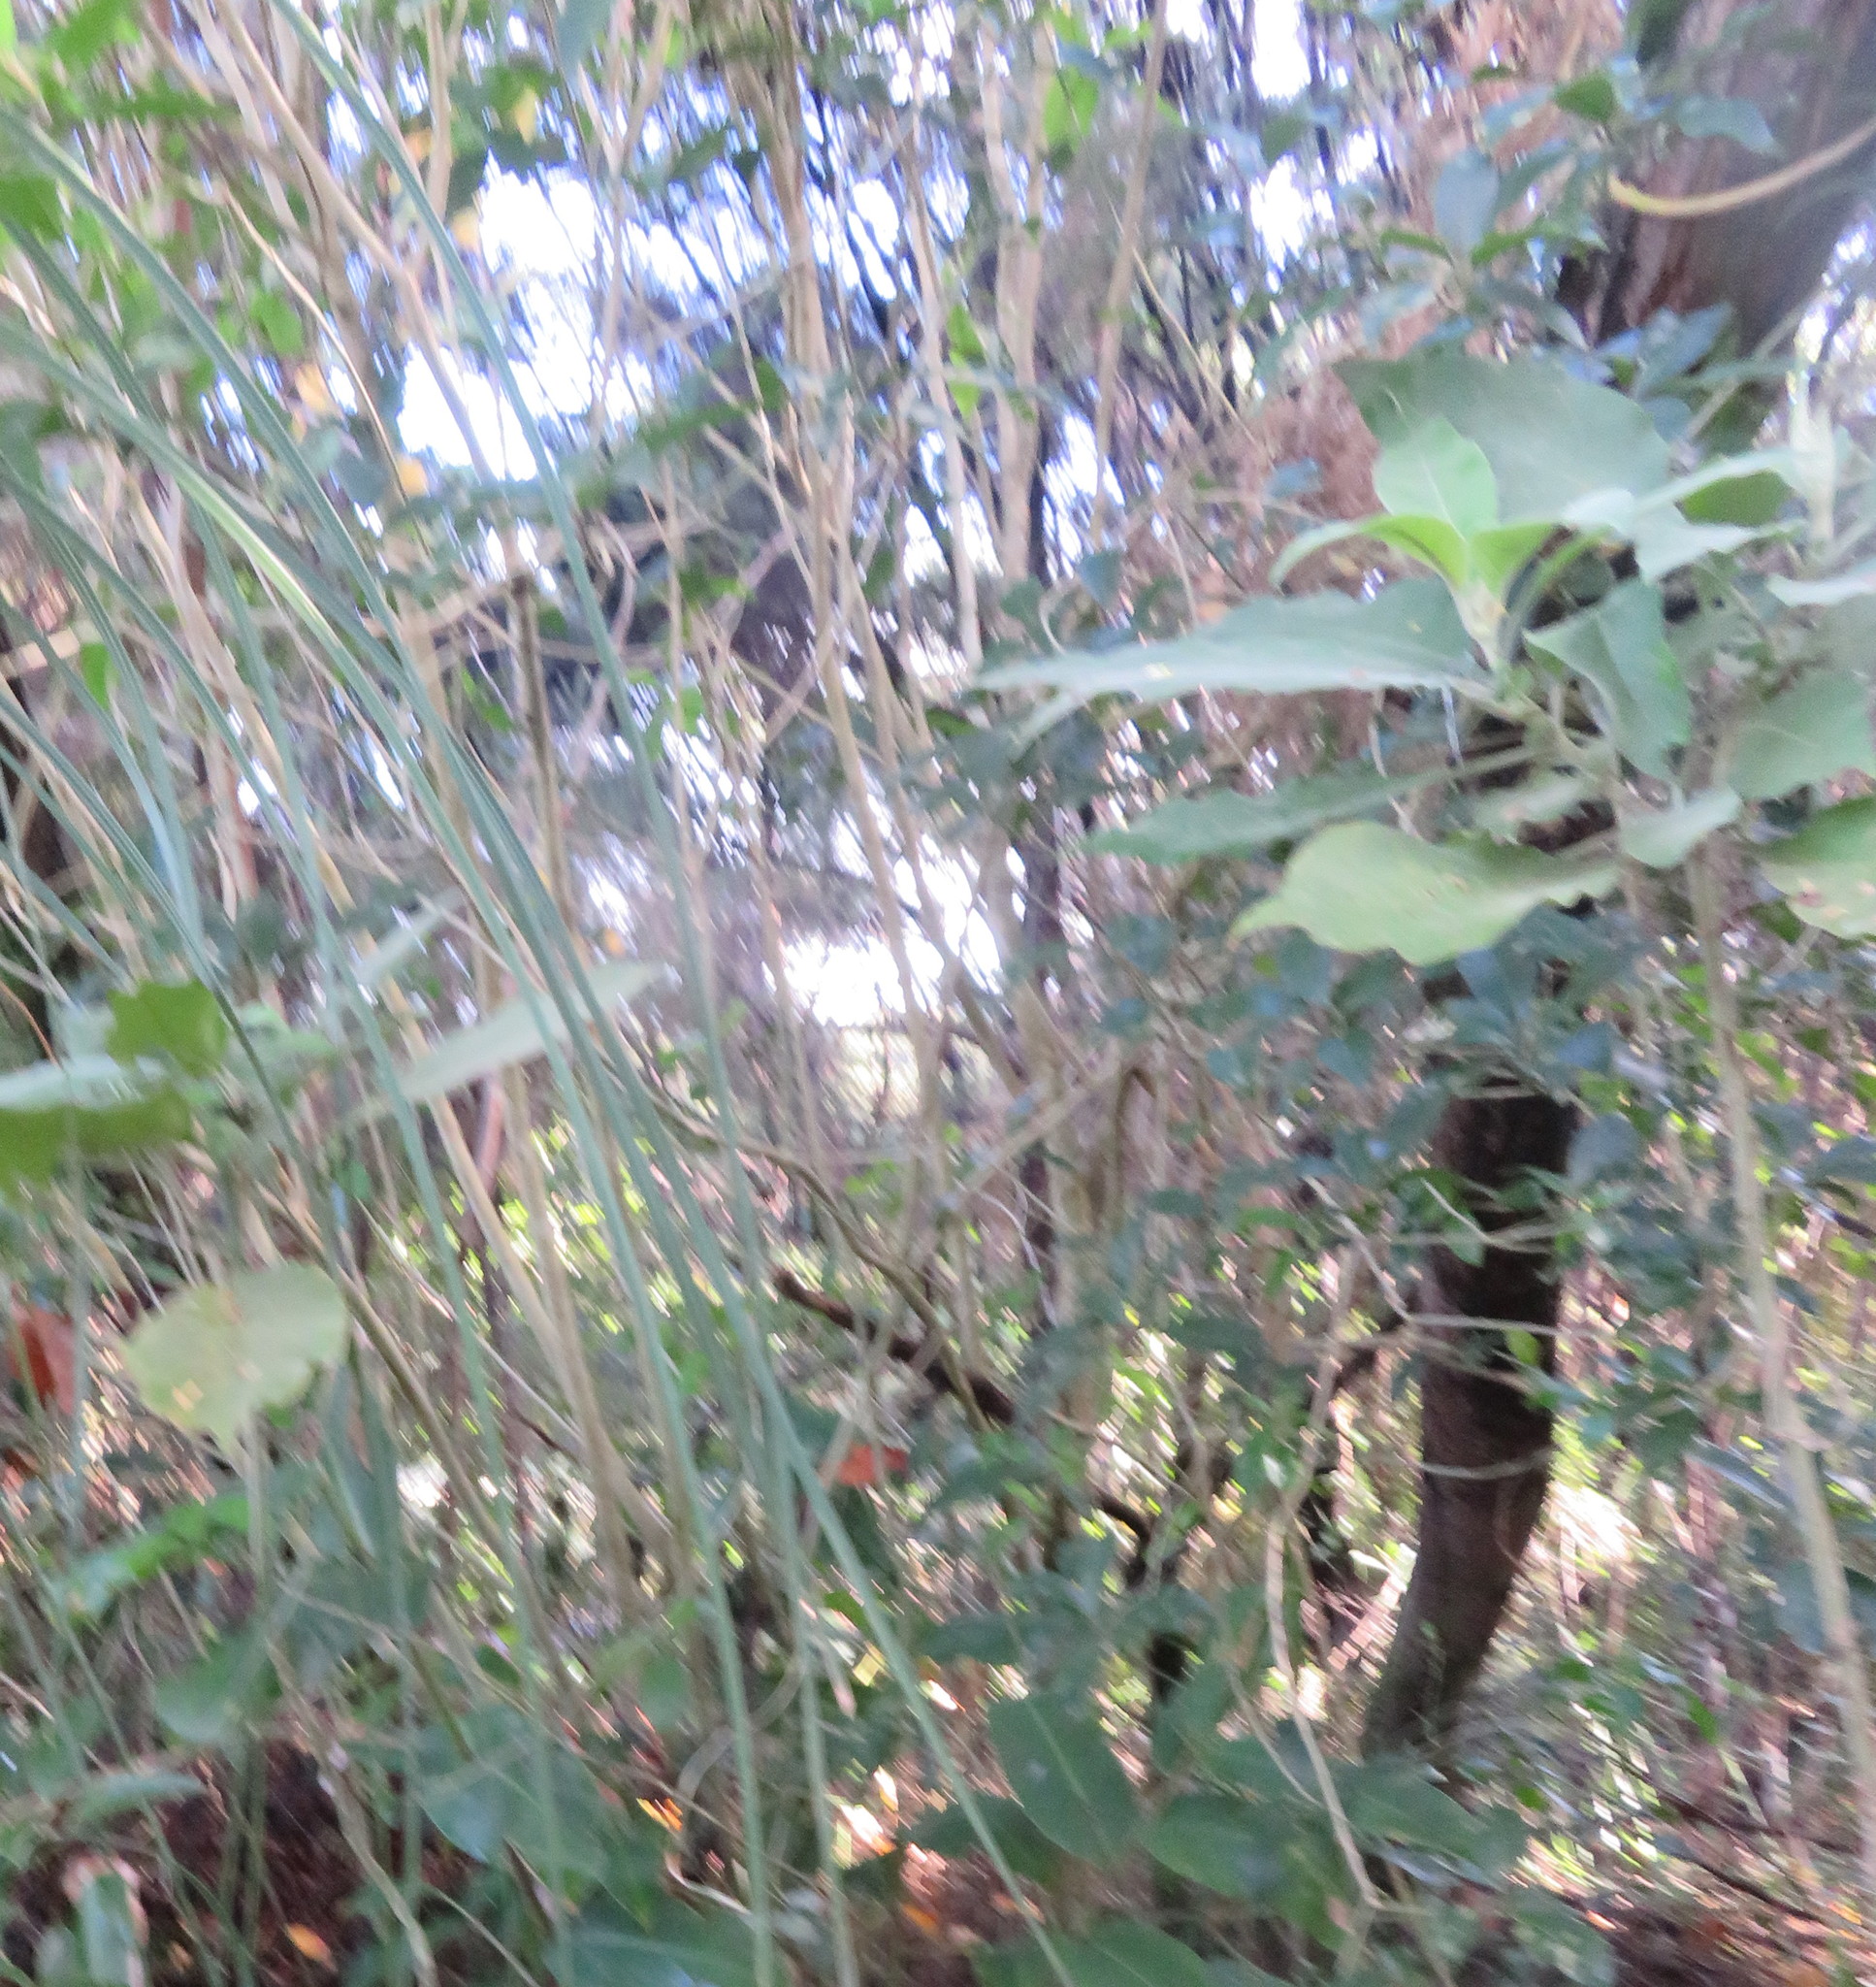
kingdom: Plantae
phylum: Tracheophyta
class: Magnoliopsida
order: Solanales
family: Solanaceae
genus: Solanum
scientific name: Solanum mauritianum
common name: Earleaf nightshade
